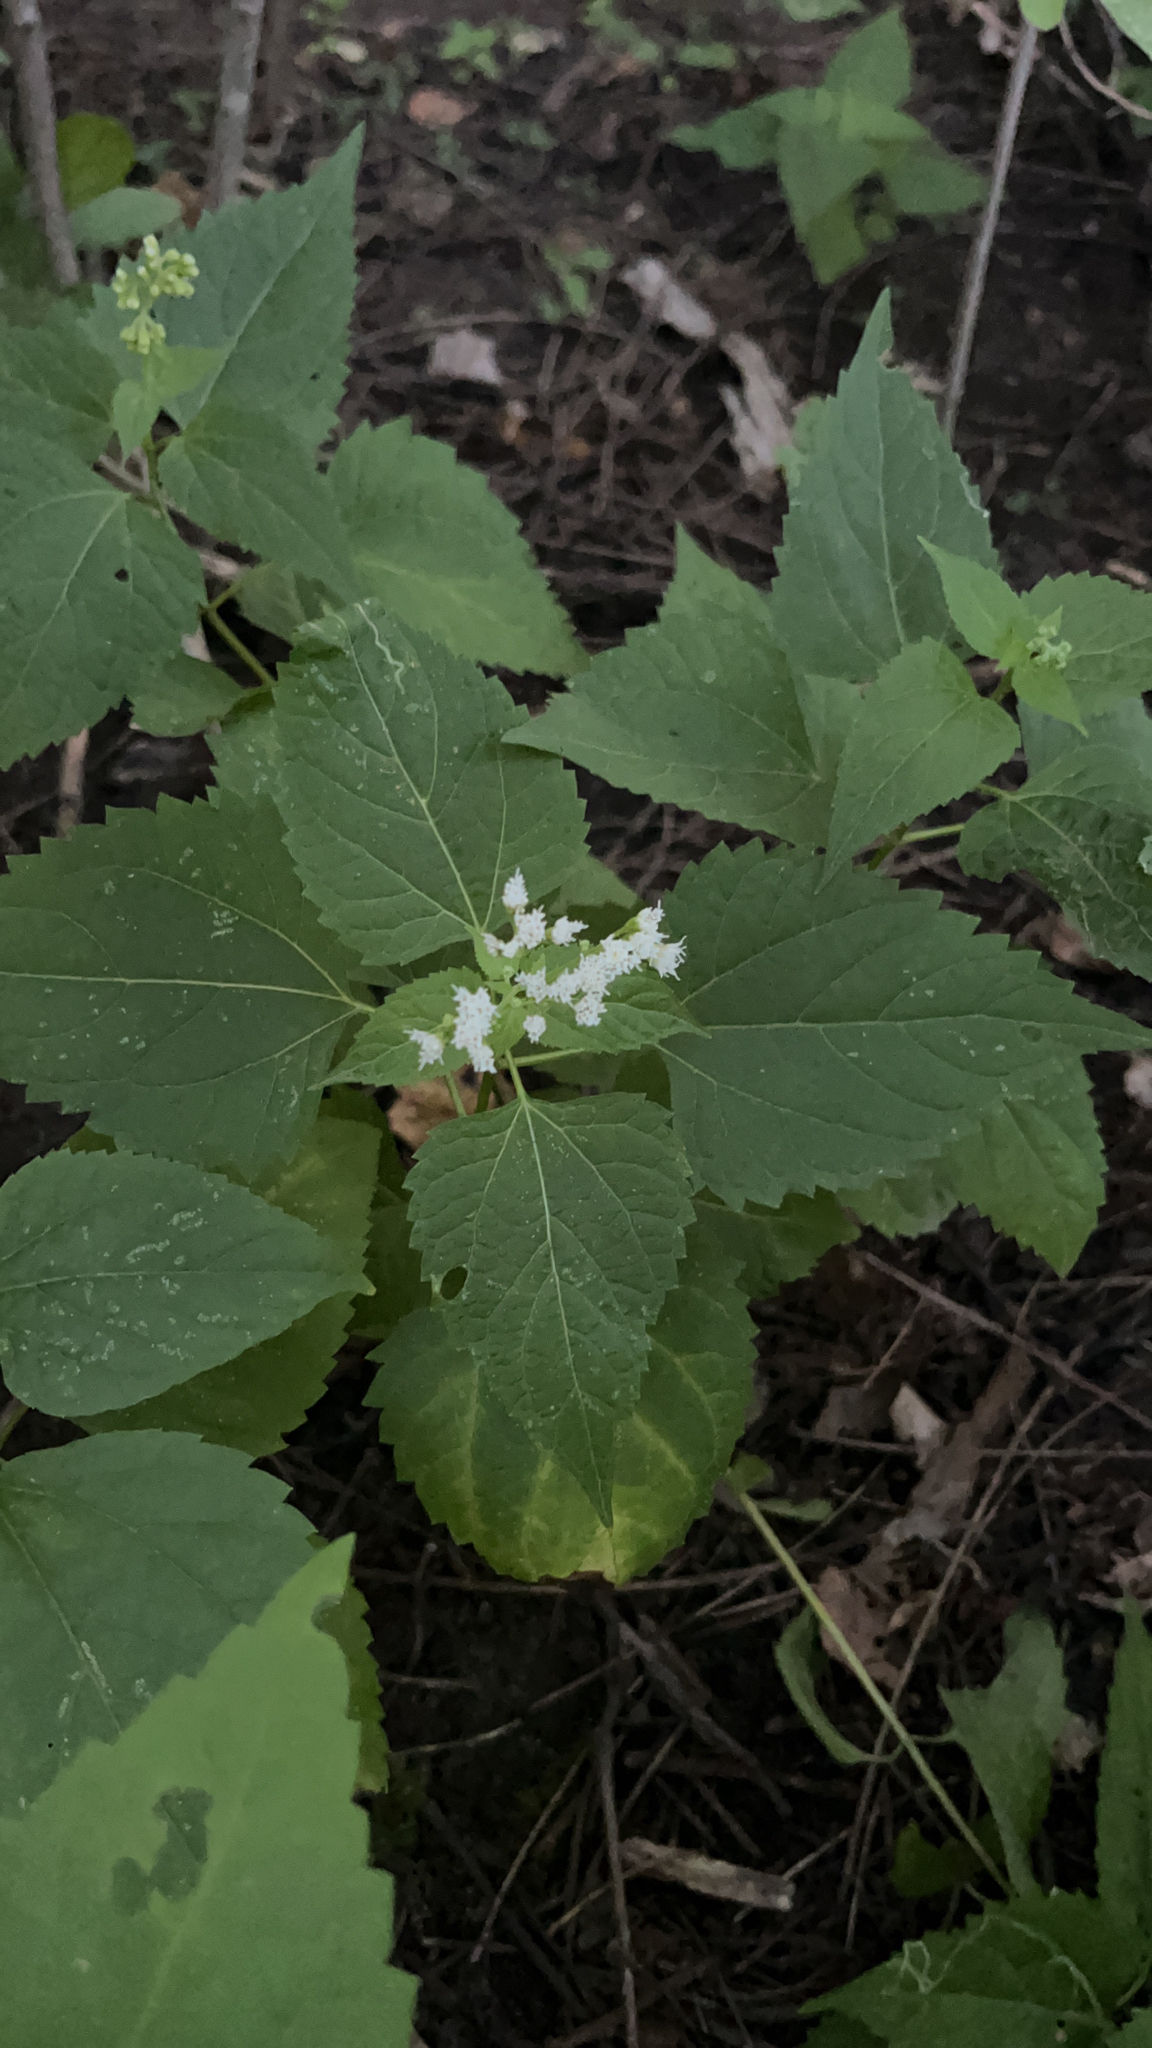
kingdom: Plantae
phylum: Tracheophyta
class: Magnoliopsida
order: Asterales
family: Asteraceae
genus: Ageratina
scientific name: Ageratina altissima
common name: White snakeroot
